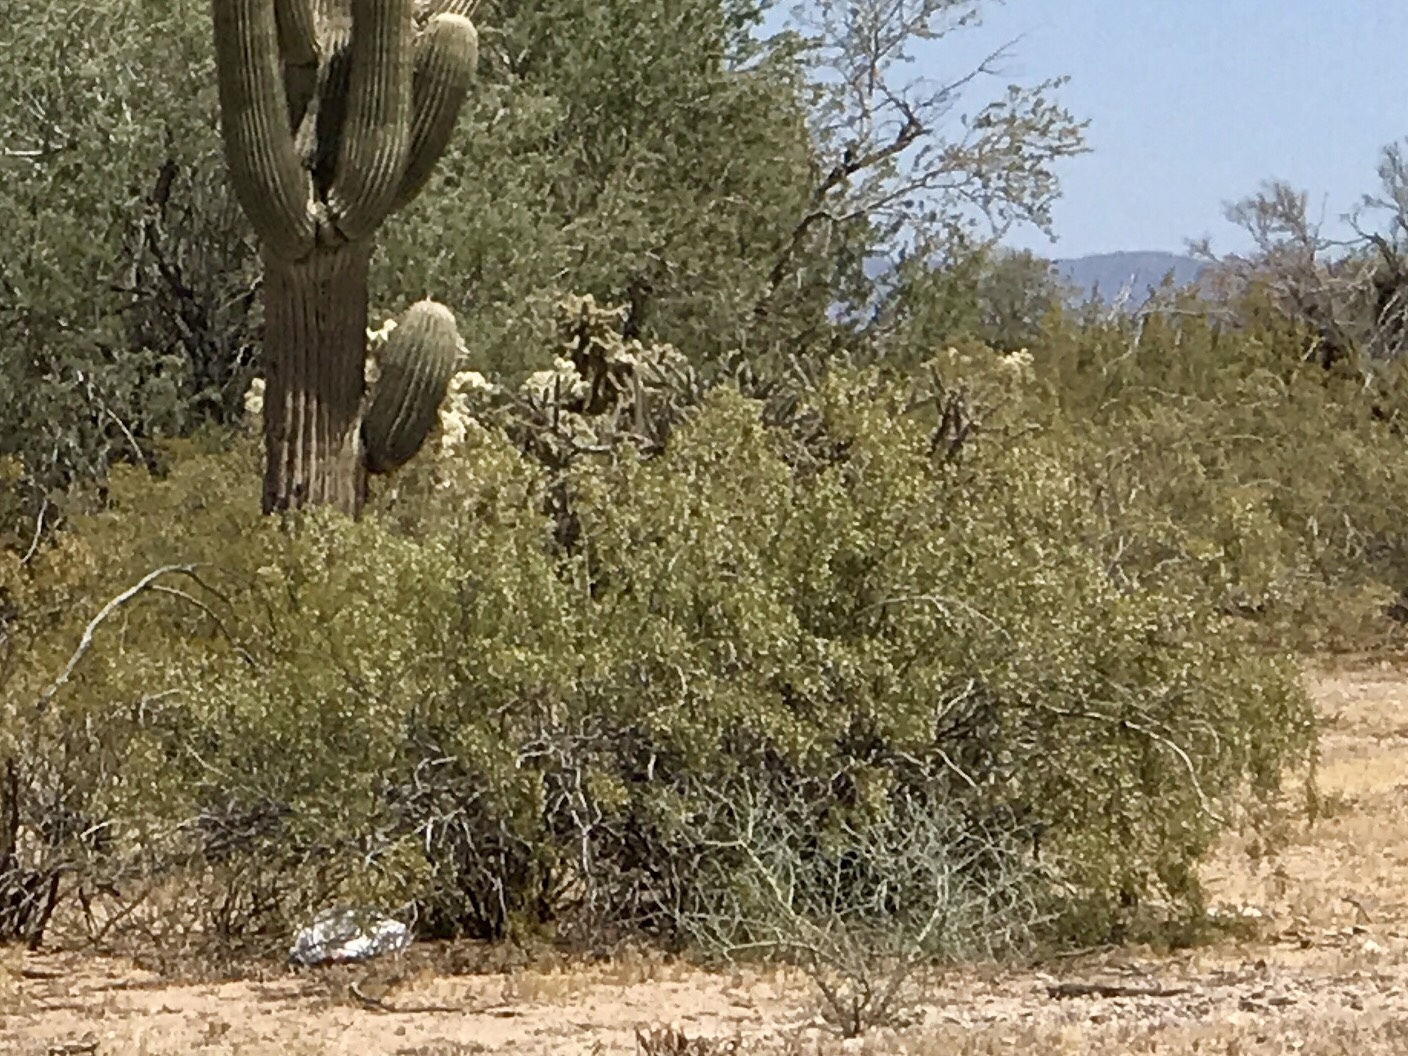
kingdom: Plantae
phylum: Tracheophyta
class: Magnoliopsida
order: Zygophyllales
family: Zygophyllaceae
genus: Larrea
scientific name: Larrea tridentata
